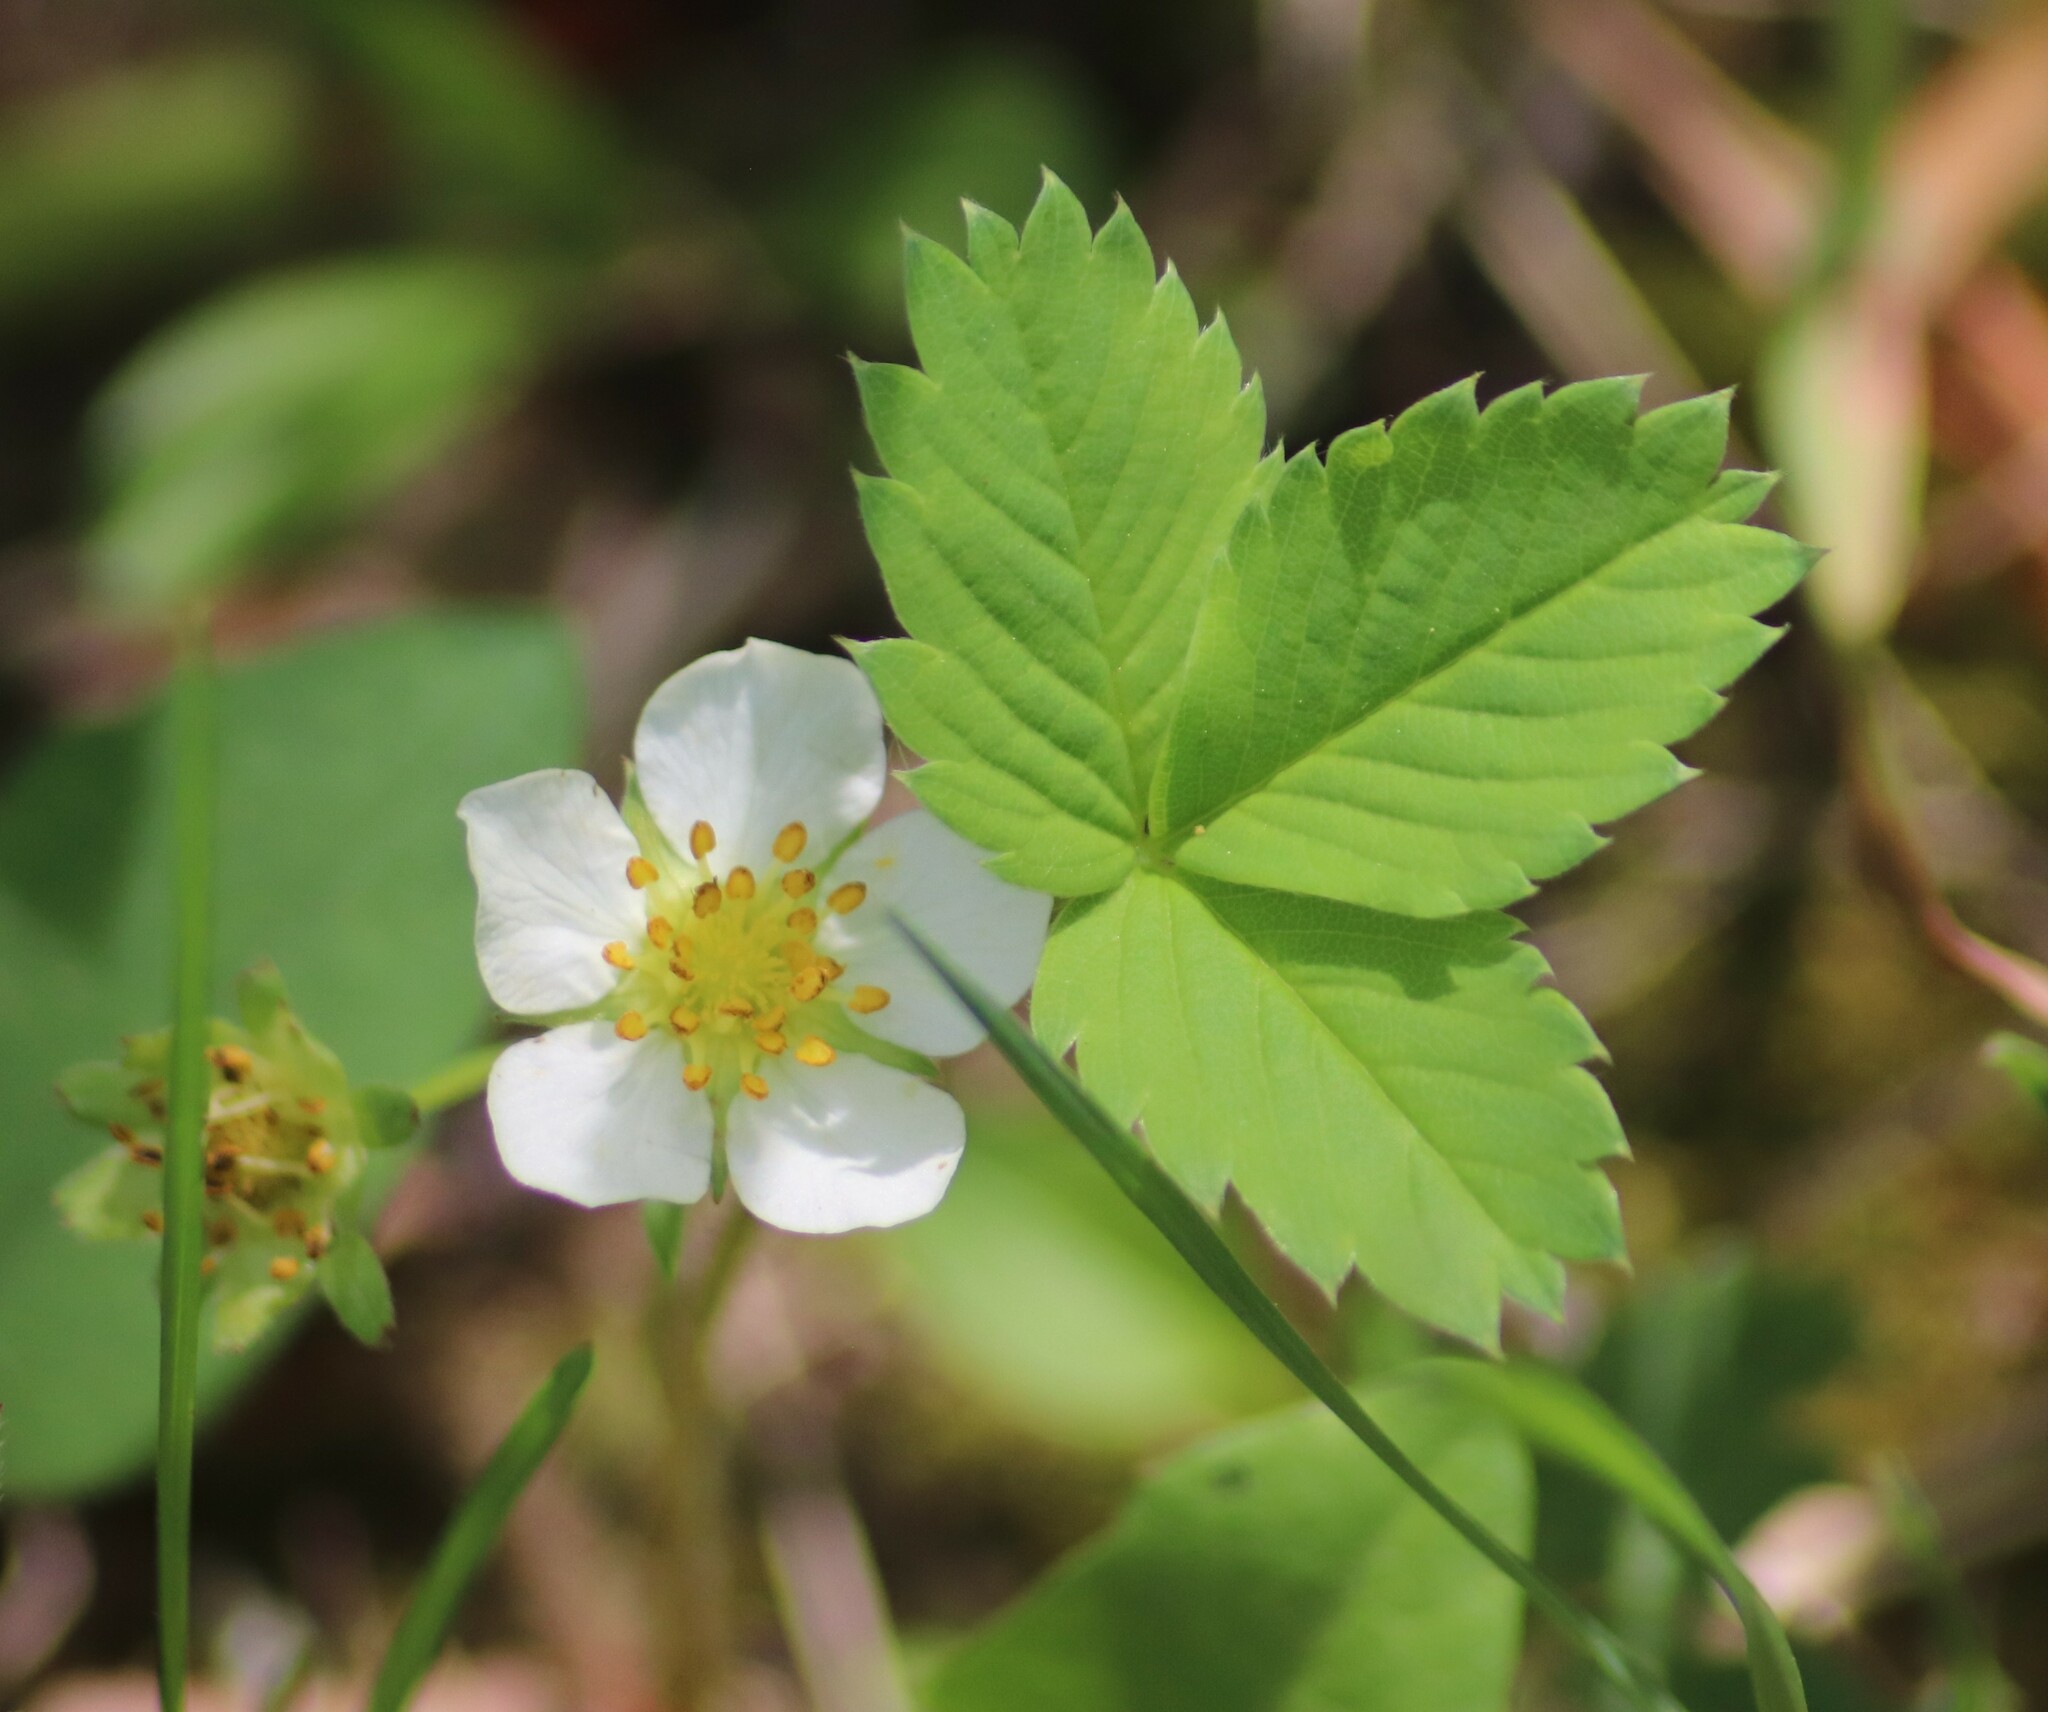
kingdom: Plantae
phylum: Tracheophyta
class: Magnoliopsida
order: Rosales
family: Rosaceae
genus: Fragaria
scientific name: Fragaria virginiana
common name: Thickleaved wild strawberry
